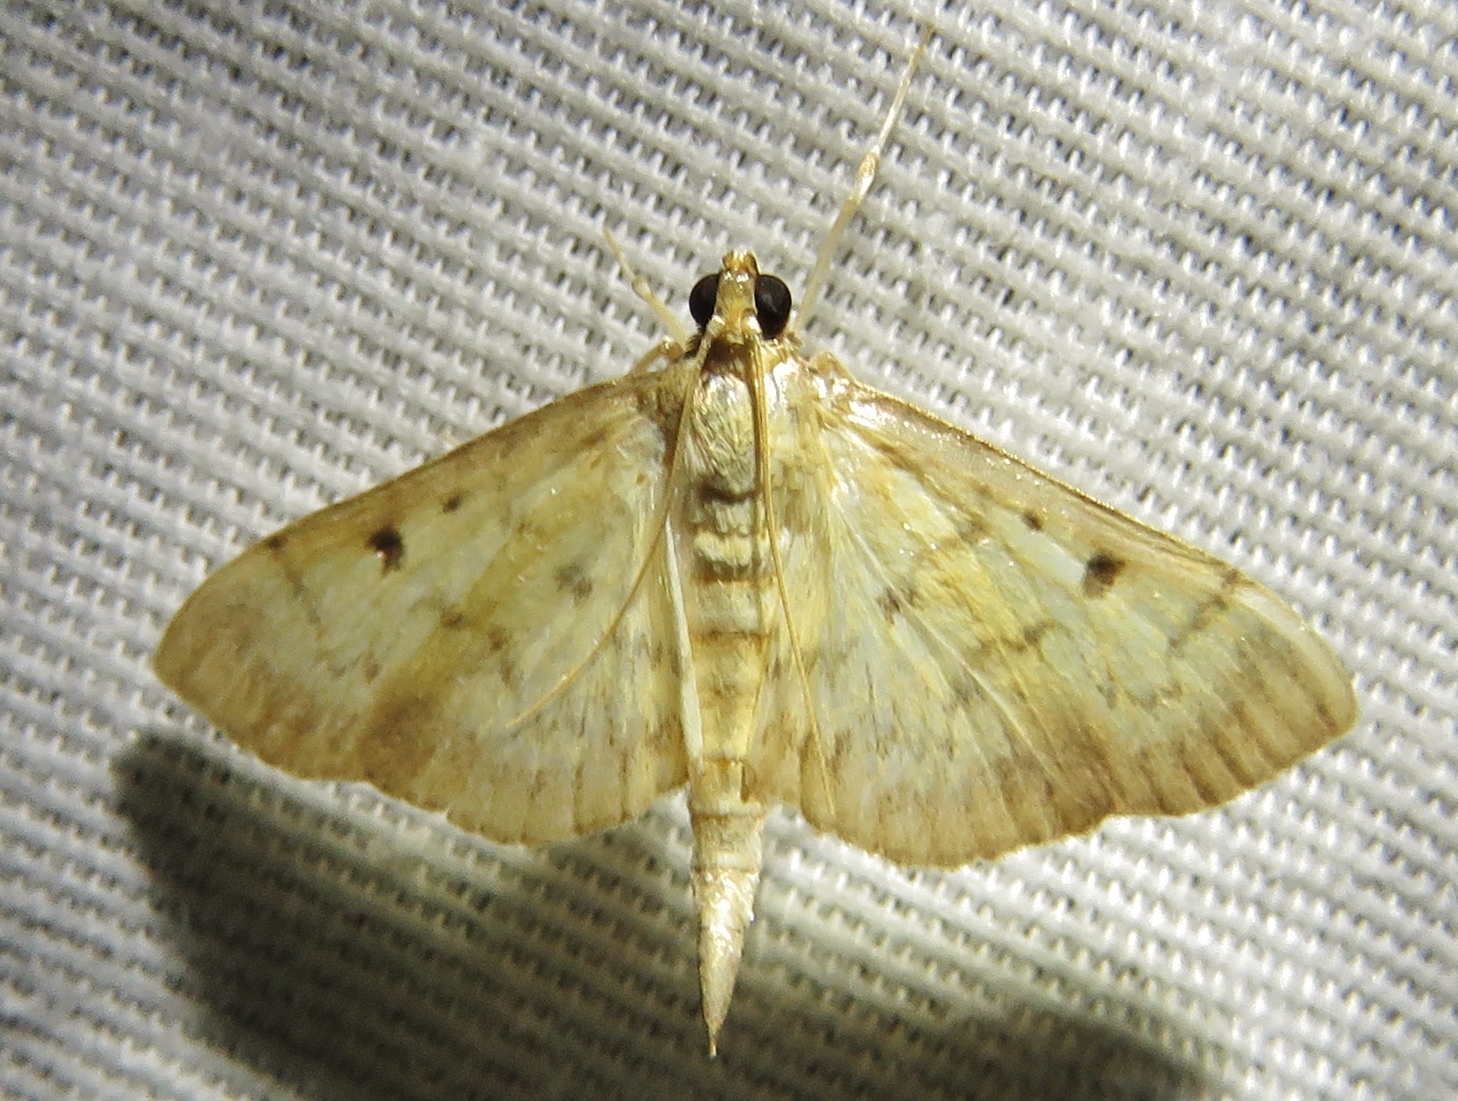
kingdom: Animalia
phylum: Arthropoda
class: Insecta
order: Lepidoptera
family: Crambidae
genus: Herpetogramma
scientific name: Herpetogramma fluctuosalis
